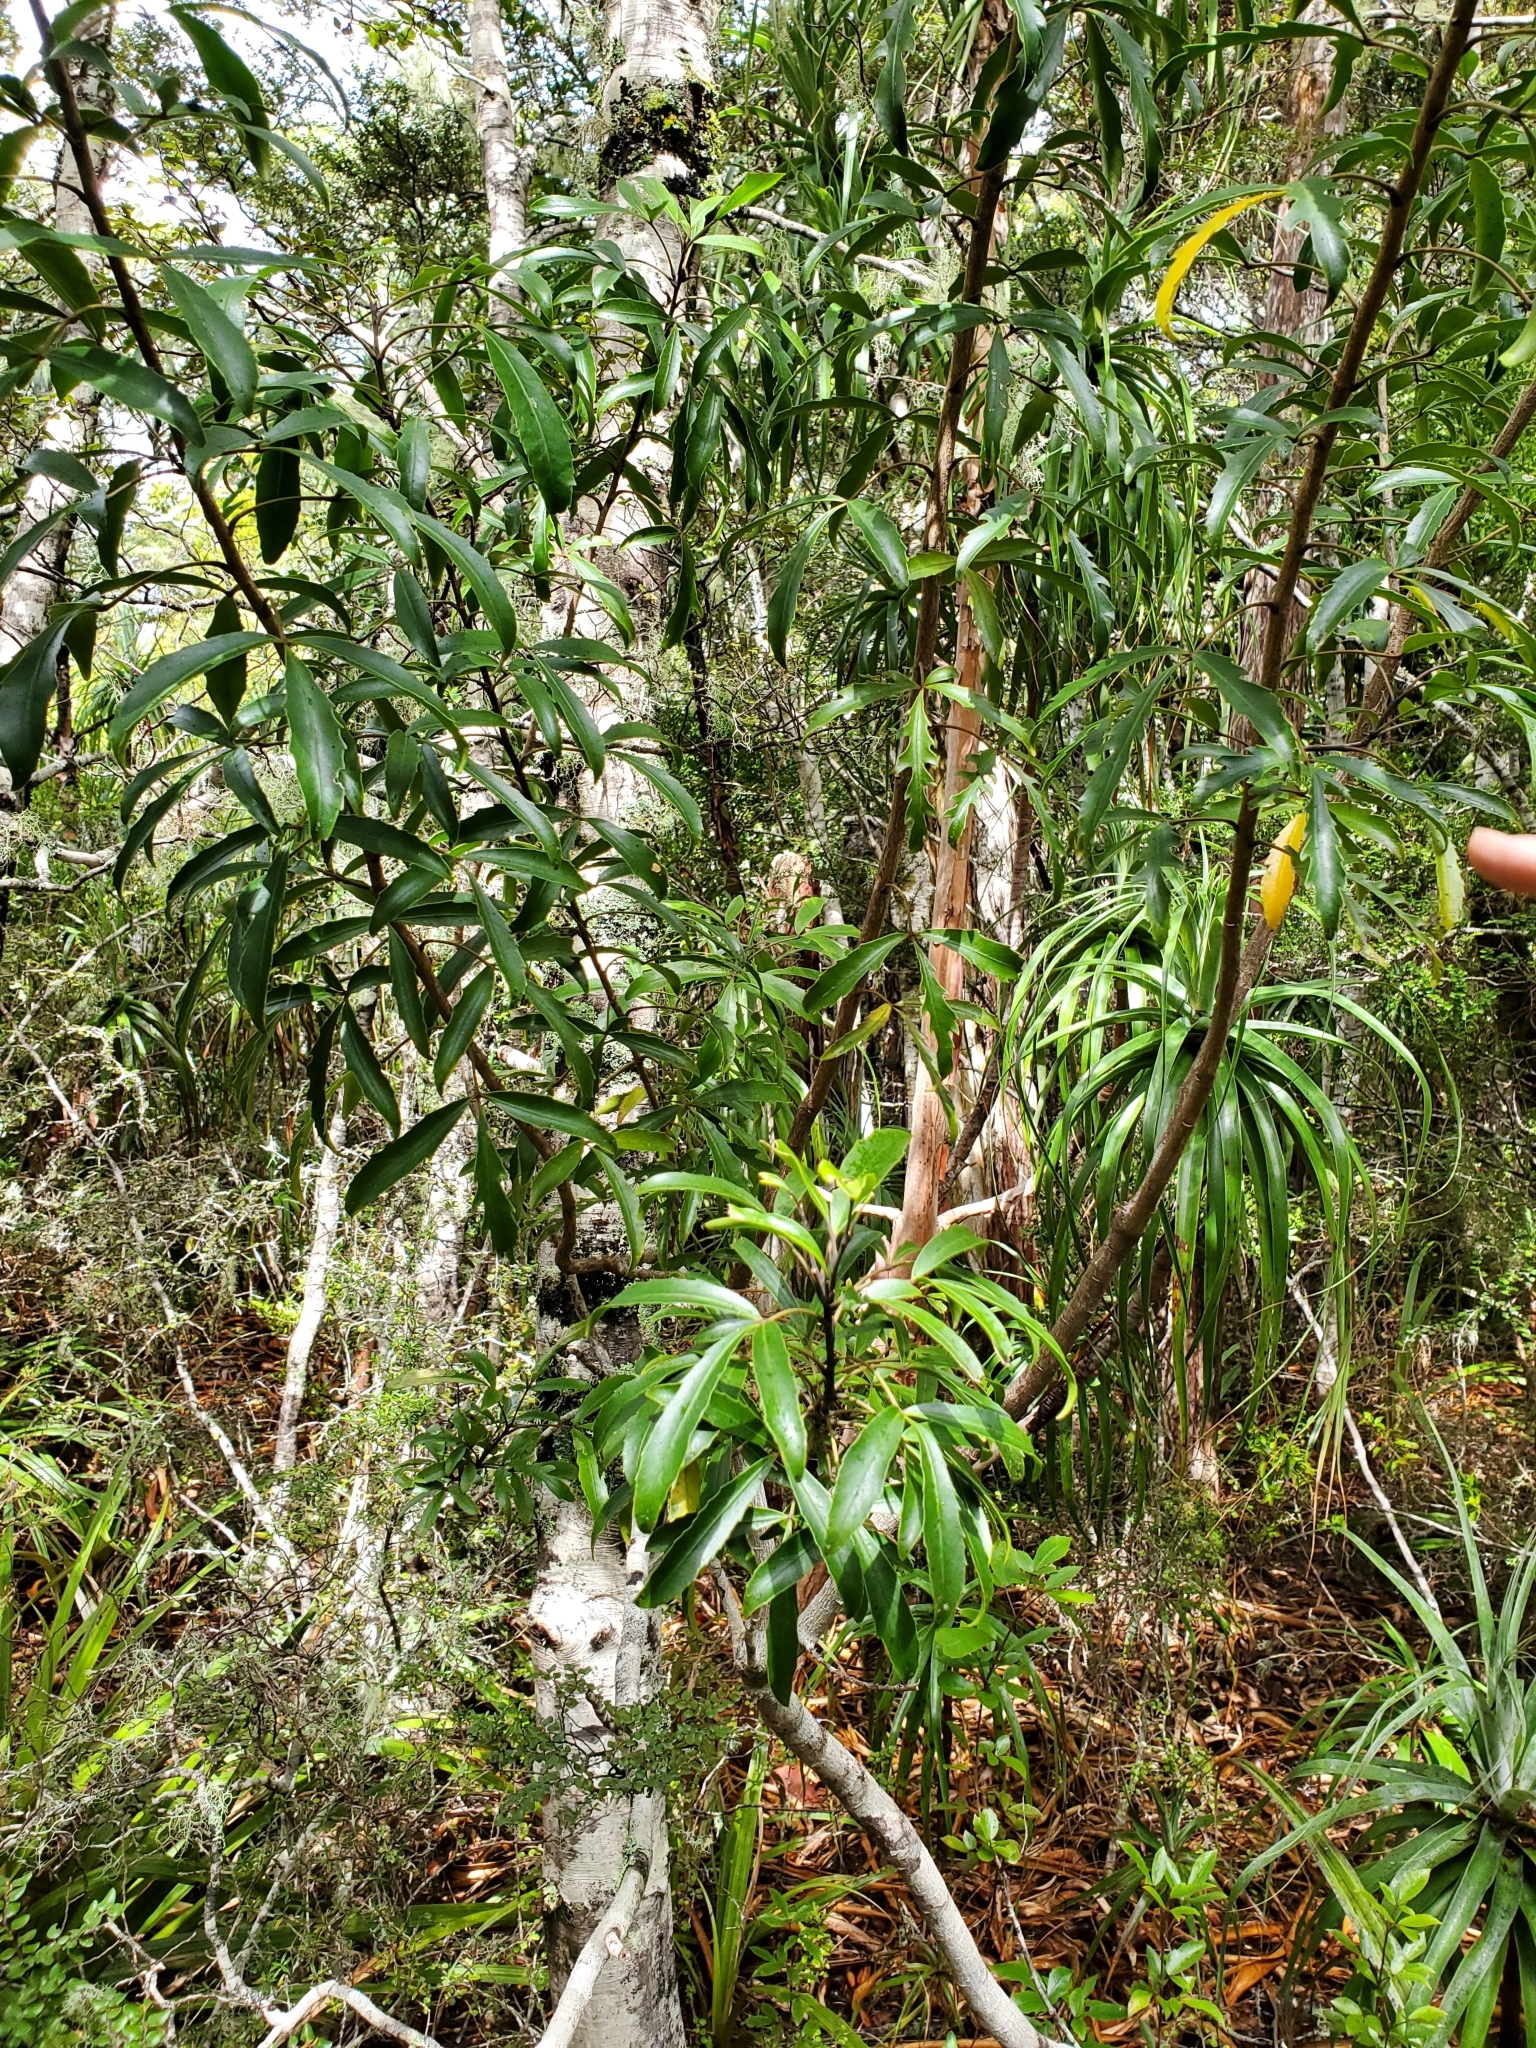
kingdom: Plantae
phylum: Tracheophyta
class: Magnoliopsida
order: Apiales
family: Araliaceae
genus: Raukaua
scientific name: Raukaua simplex
